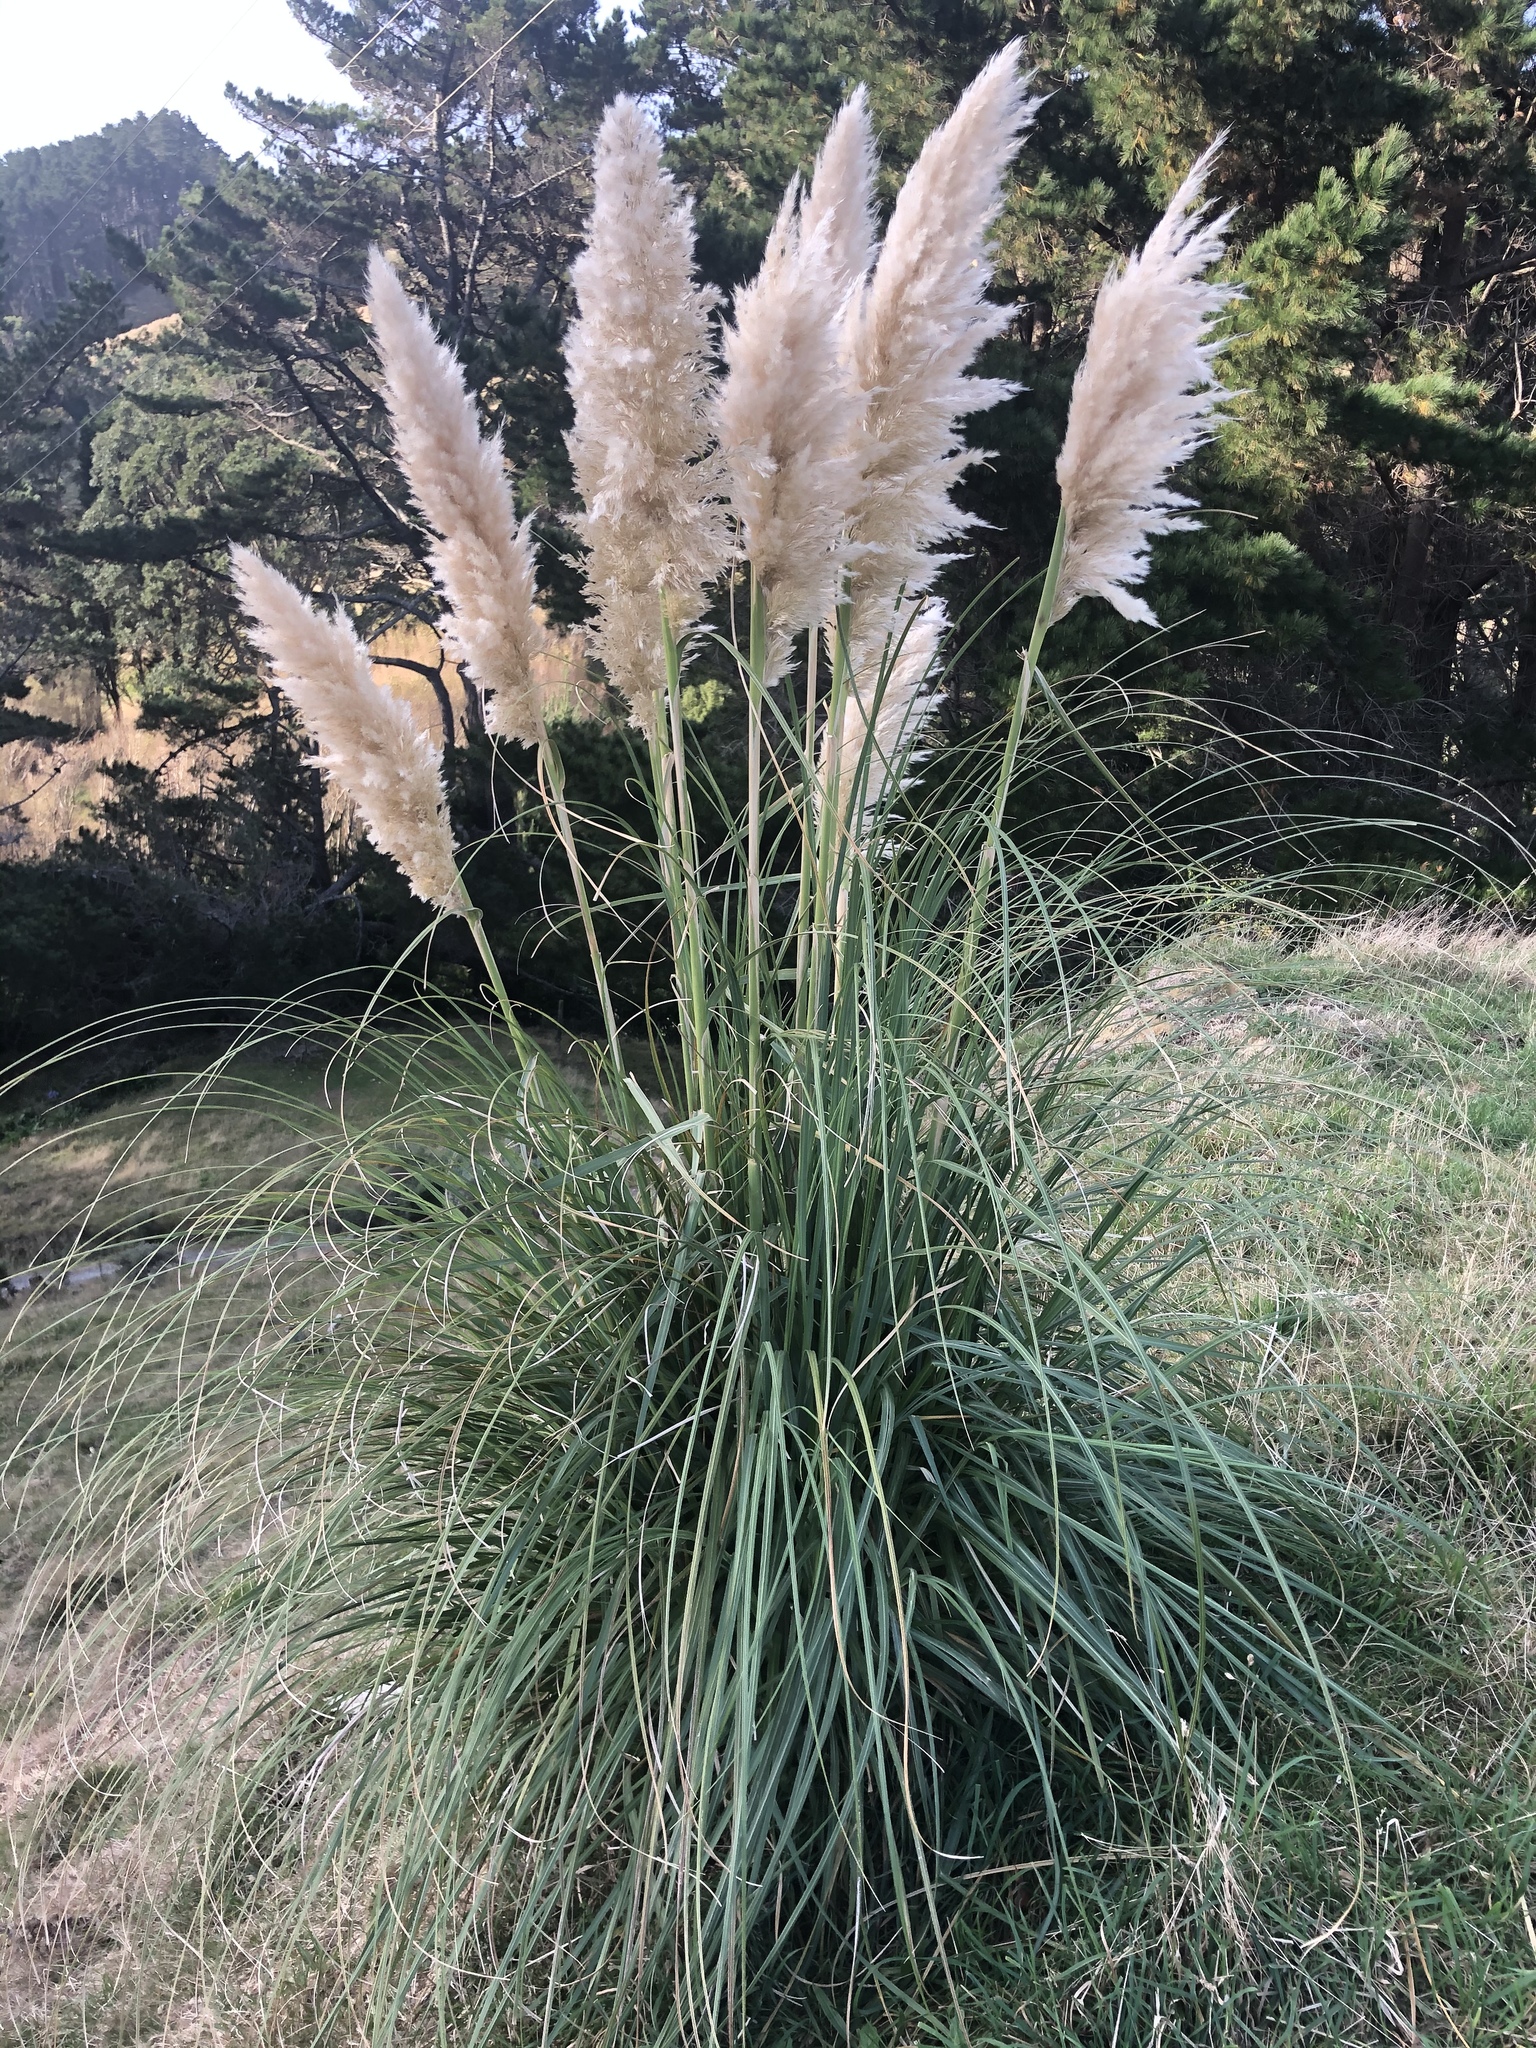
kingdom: Plantae
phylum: Tracheophyta
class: Liliopsida
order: Poales
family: Poaceae
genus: Cortaderia
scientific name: Cortaderia selloana
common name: Uruguayan pampas grass
